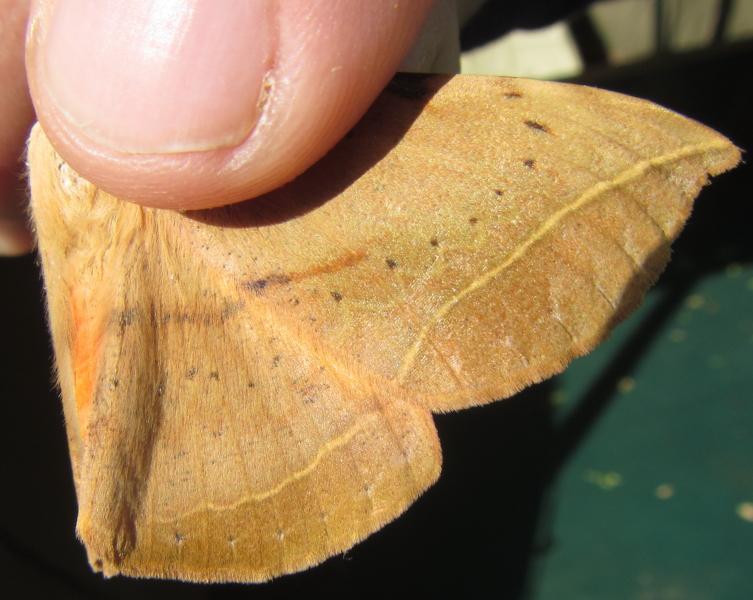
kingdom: Animalia
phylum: Arthropoda
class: Insecta
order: Lepidoptera
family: Erebidae
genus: Hypopyra
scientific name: Hypopyra capensis
